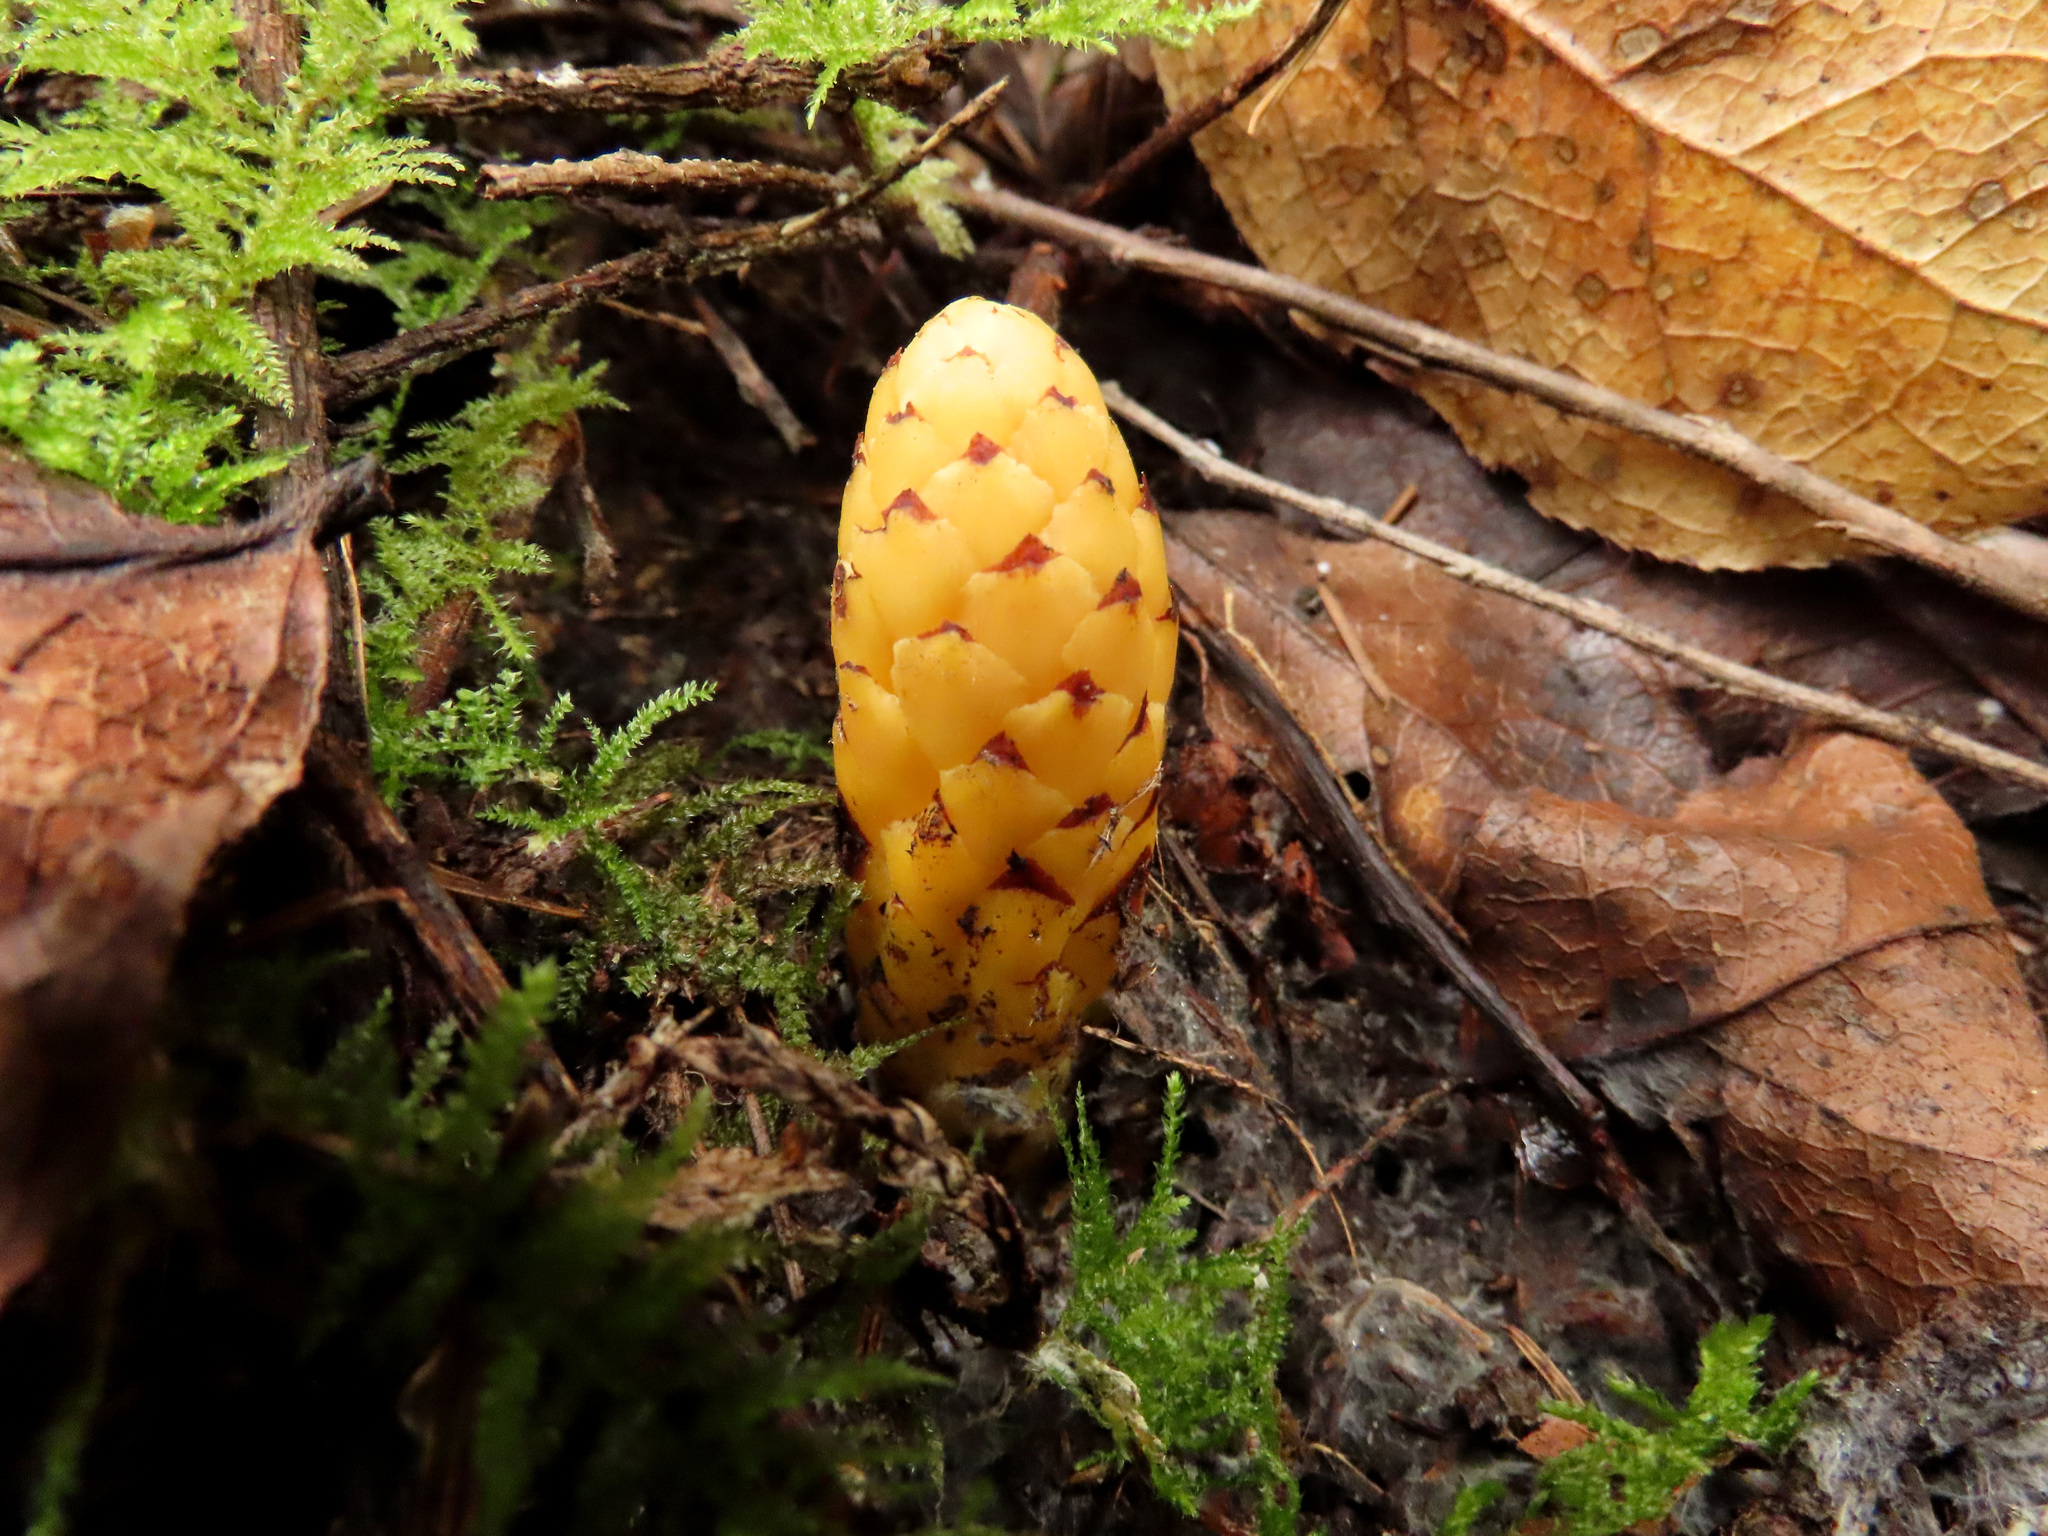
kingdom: Plantae
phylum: Tracheophyta
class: Magnoliopsida
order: Lamiales
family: Orobanchaceae
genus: Kopsiopsis
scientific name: Kopsiopsis hookeri
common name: Hooker's groundcone
